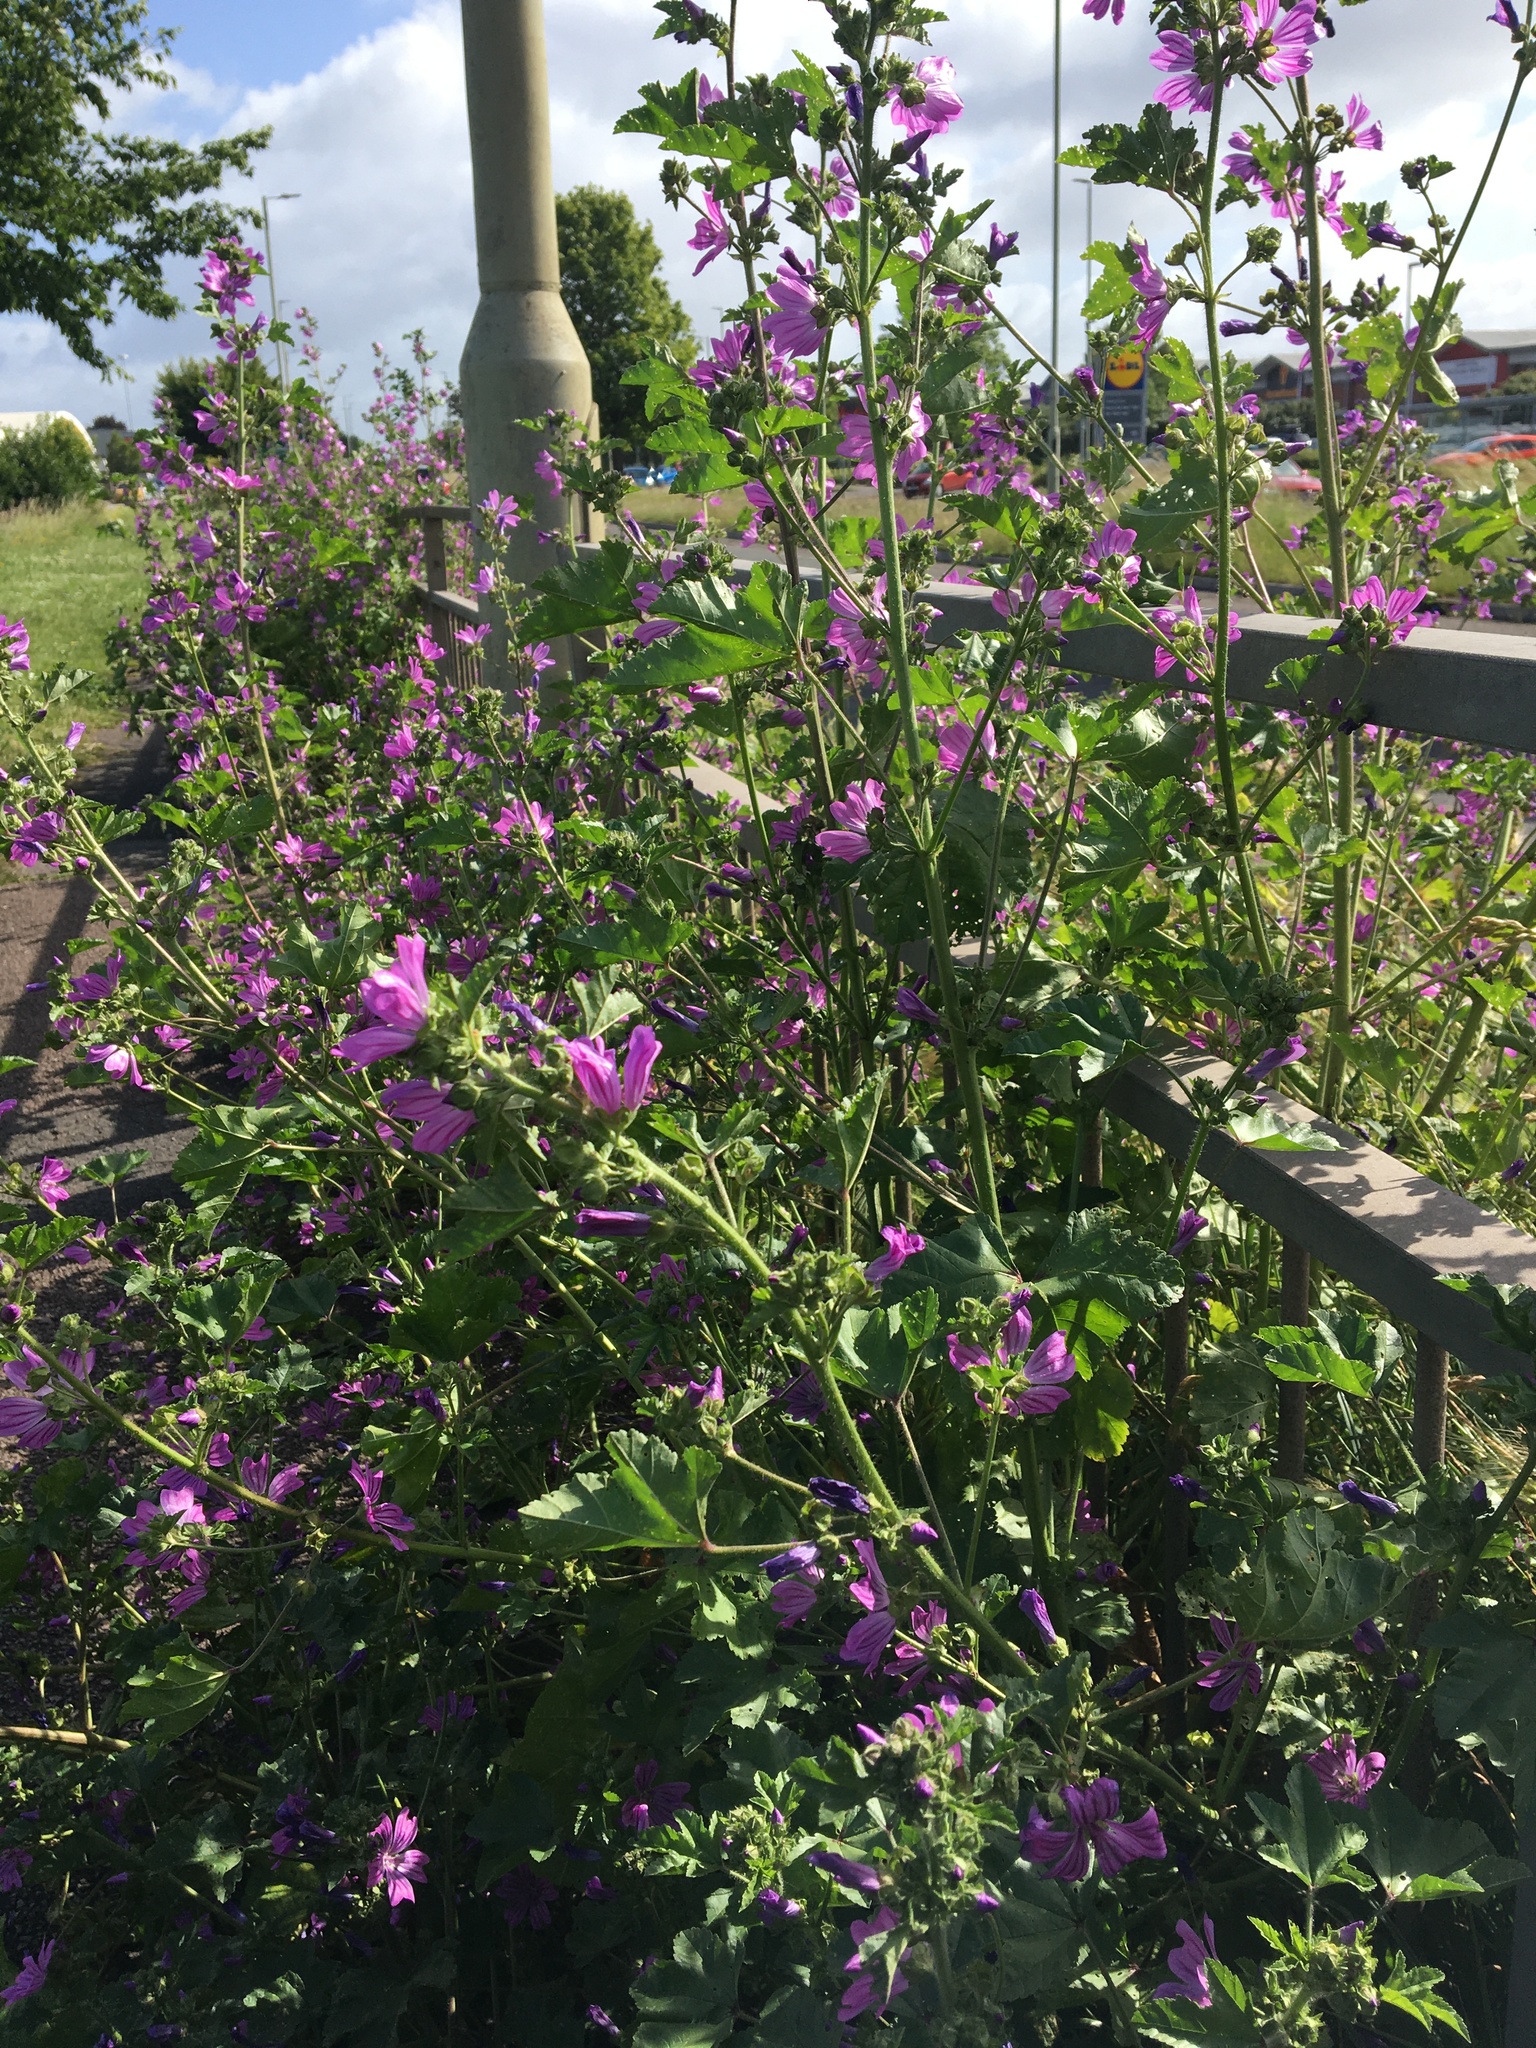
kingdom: Plantae
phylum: Tracheophyta
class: Magnoliopsida
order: Malvales
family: Malvaceae
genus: Malva
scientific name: Malva sylvestris
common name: Common mallow
